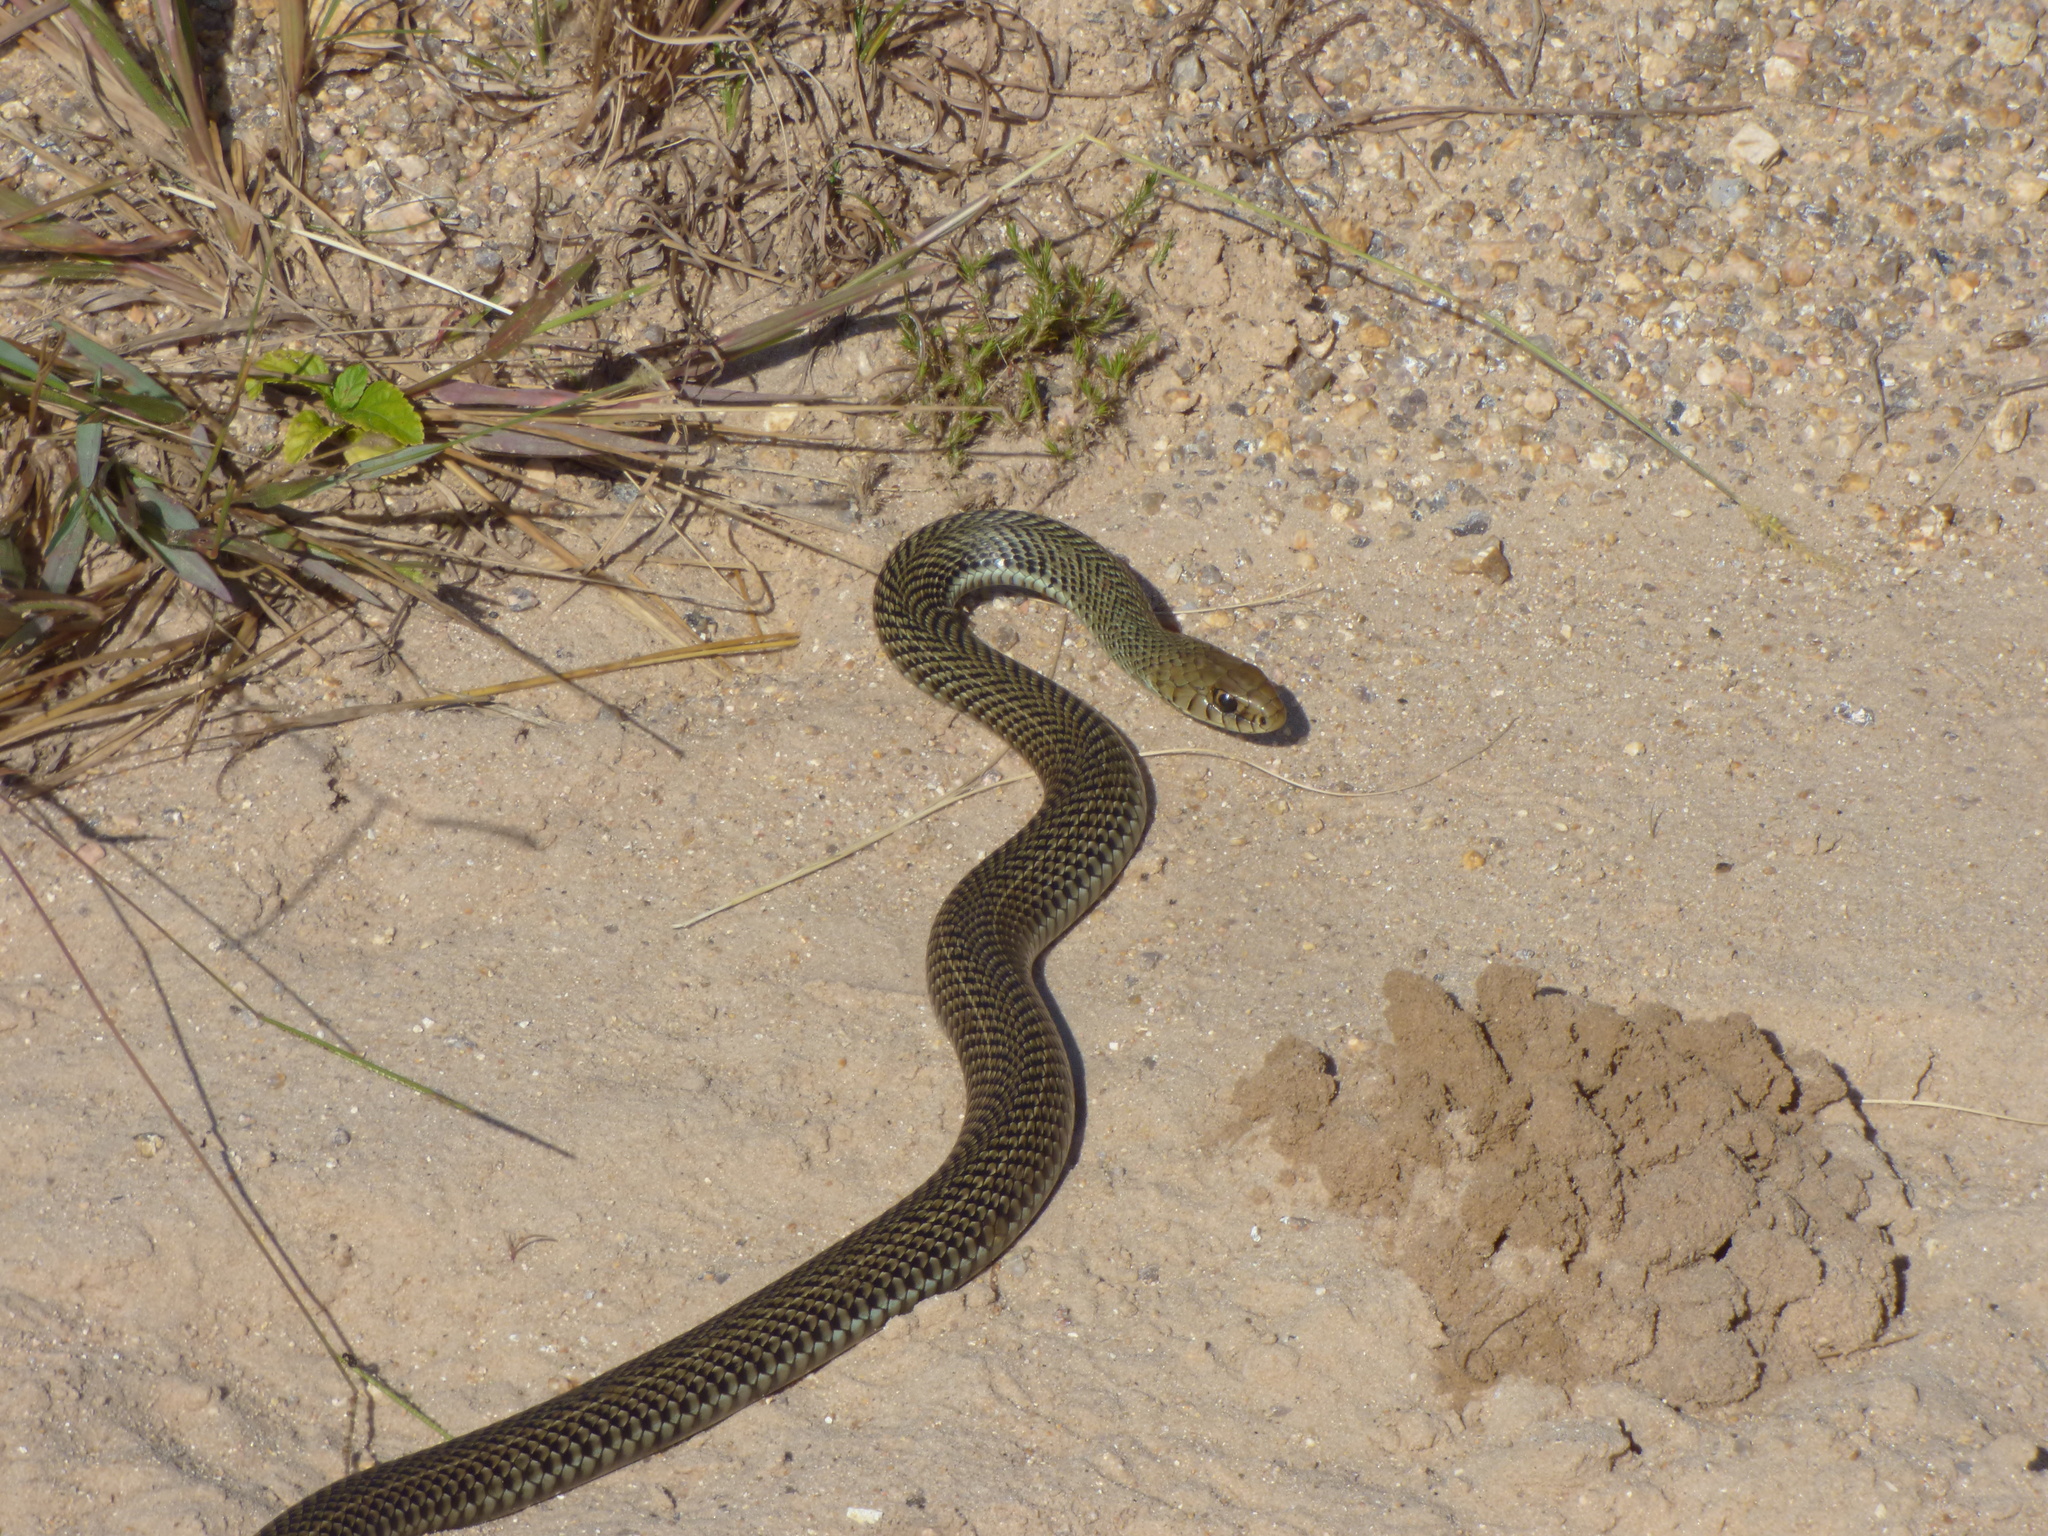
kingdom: Animalia
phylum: Chordata
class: Squamata
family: Colubridae
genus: Philodryas
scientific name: Philodryas patagoniensis
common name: Patagonia green racer
